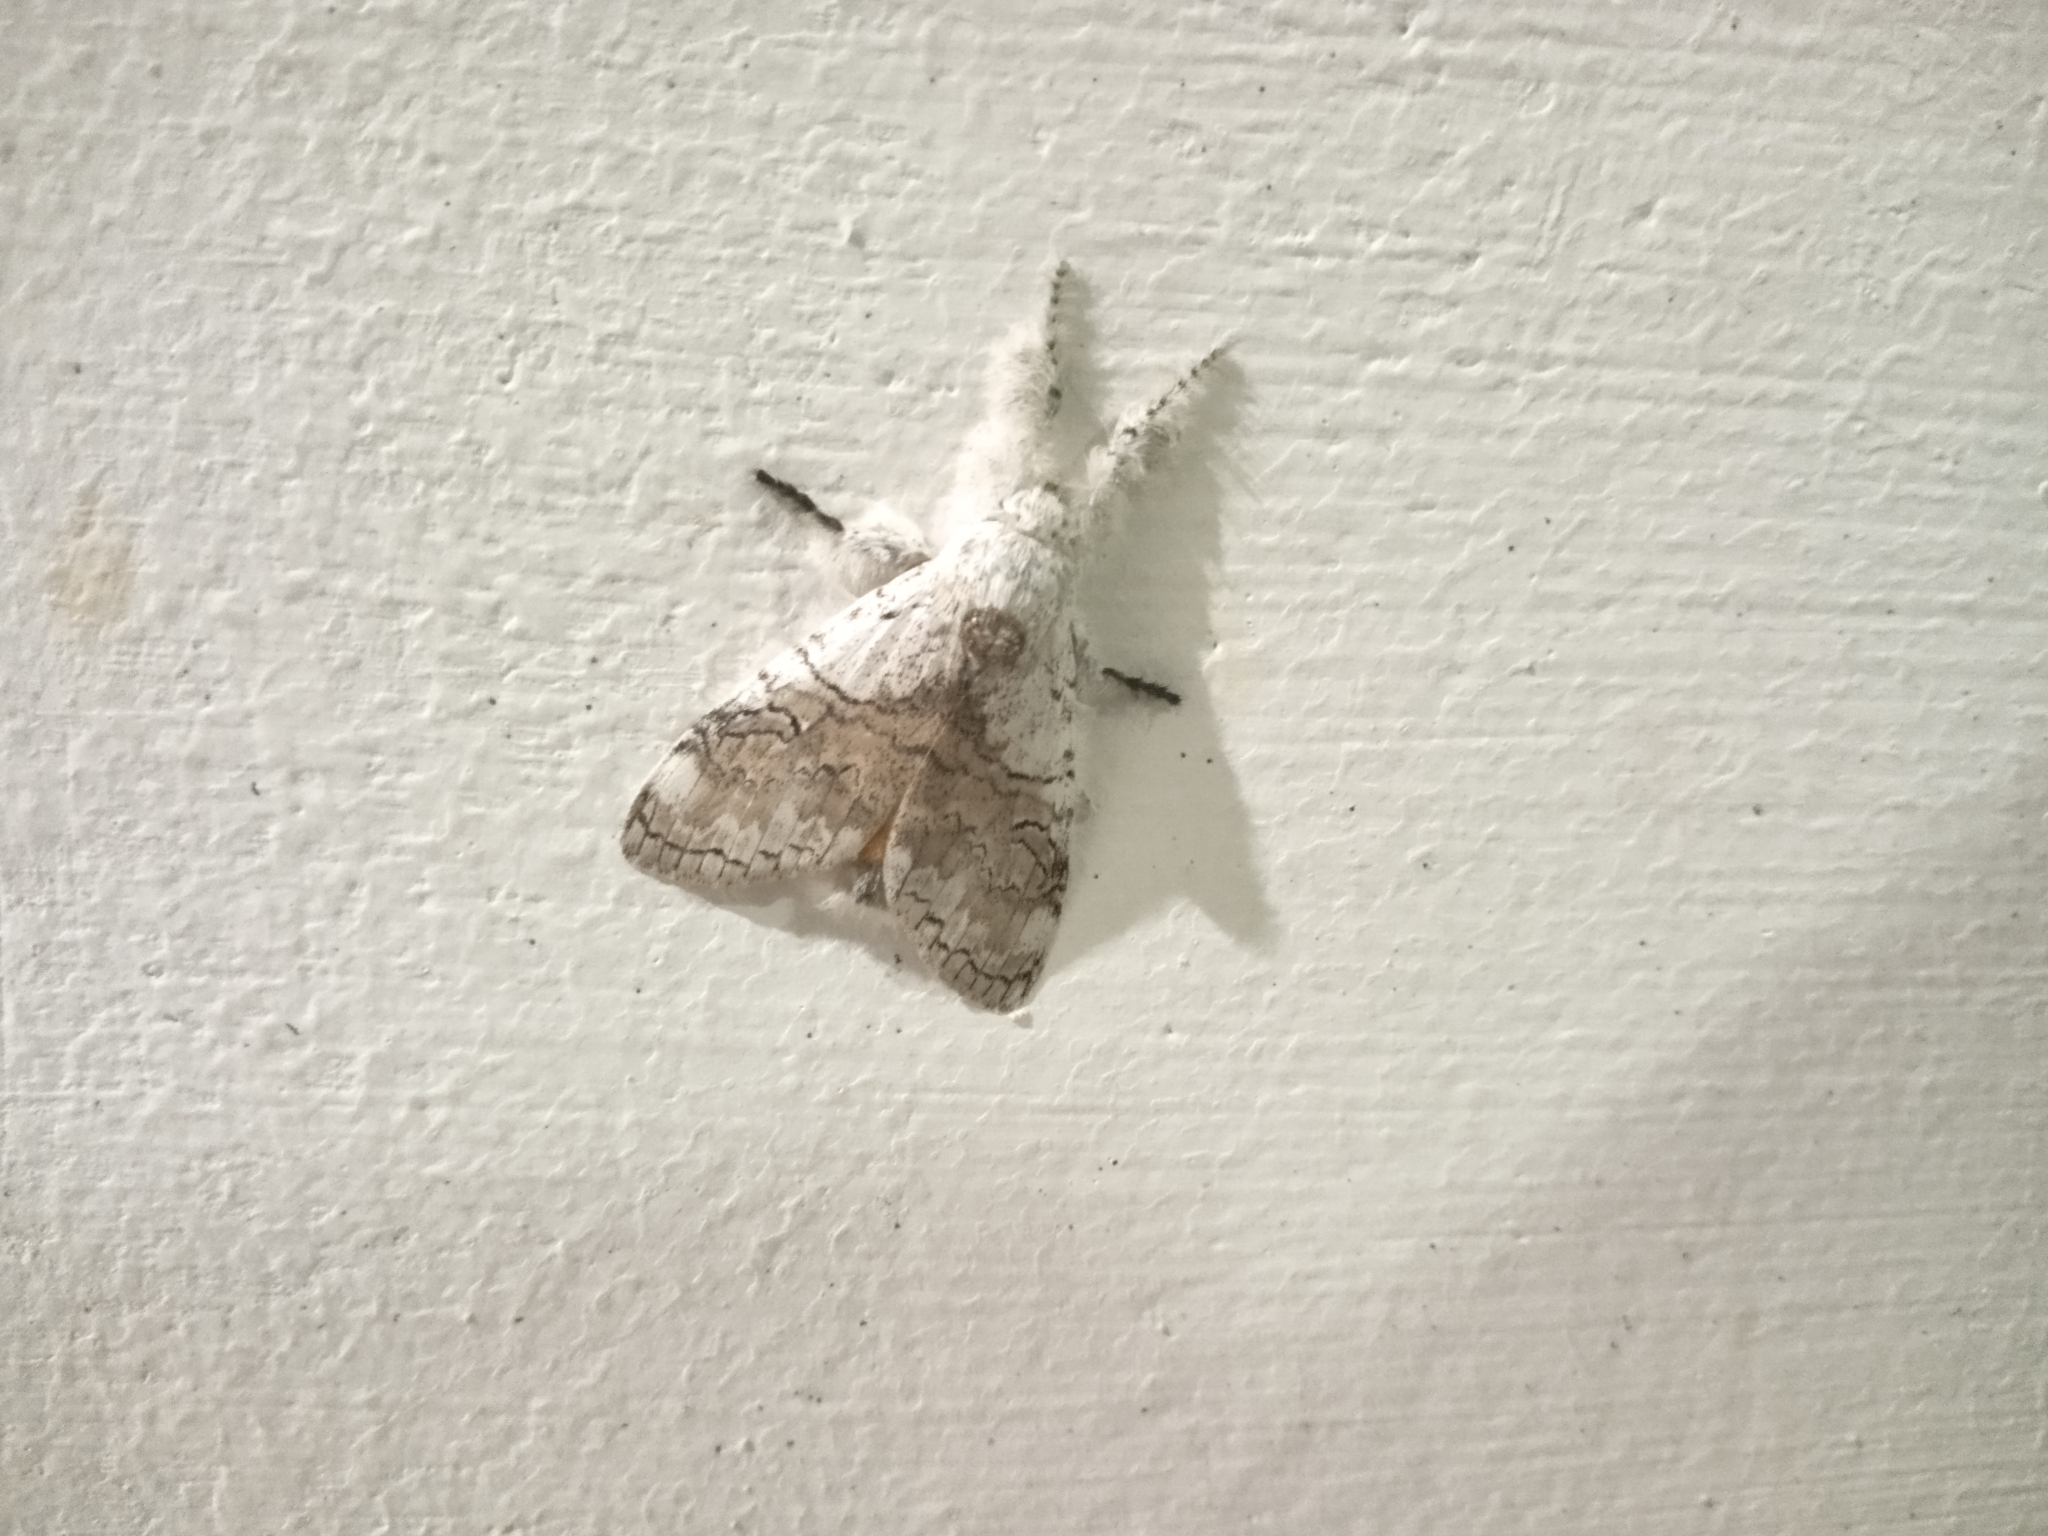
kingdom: Animalia
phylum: Arthropoda
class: Insecta
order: Lepidoptera
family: Erebidae
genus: Calliteara
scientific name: Calliteara grotei
